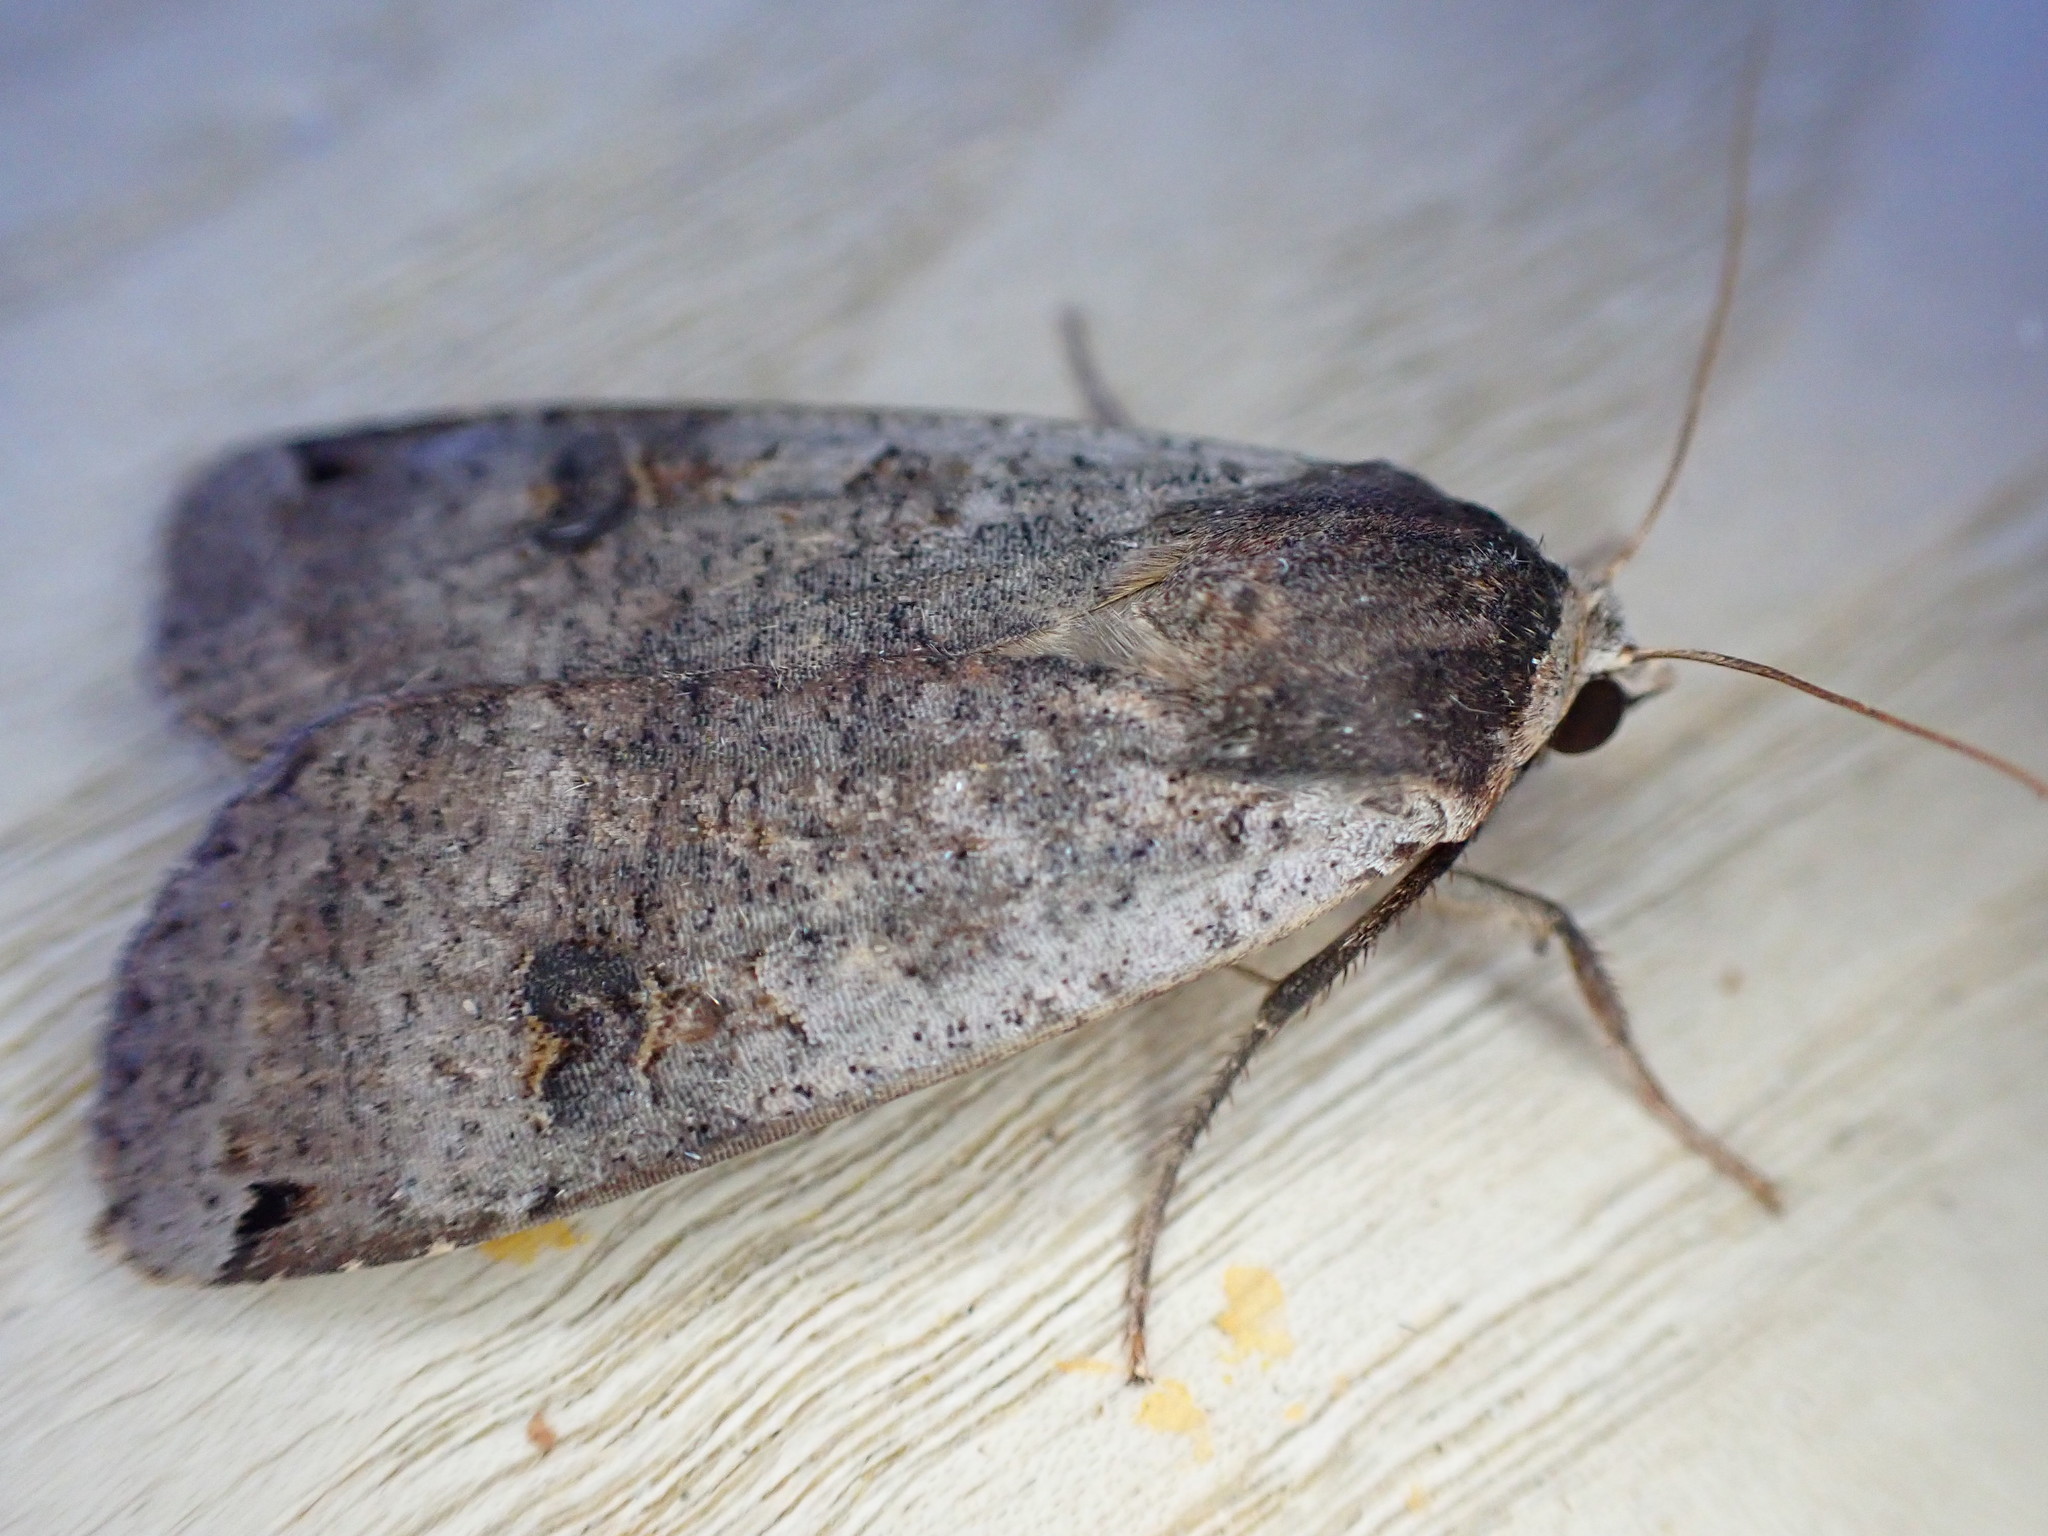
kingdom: Animalia
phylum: Arthropoda
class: Insecta
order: Lepidoptera
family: Noctuidae
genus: Noctua
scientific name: Noctua pronuba
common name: Large yellow underwing
